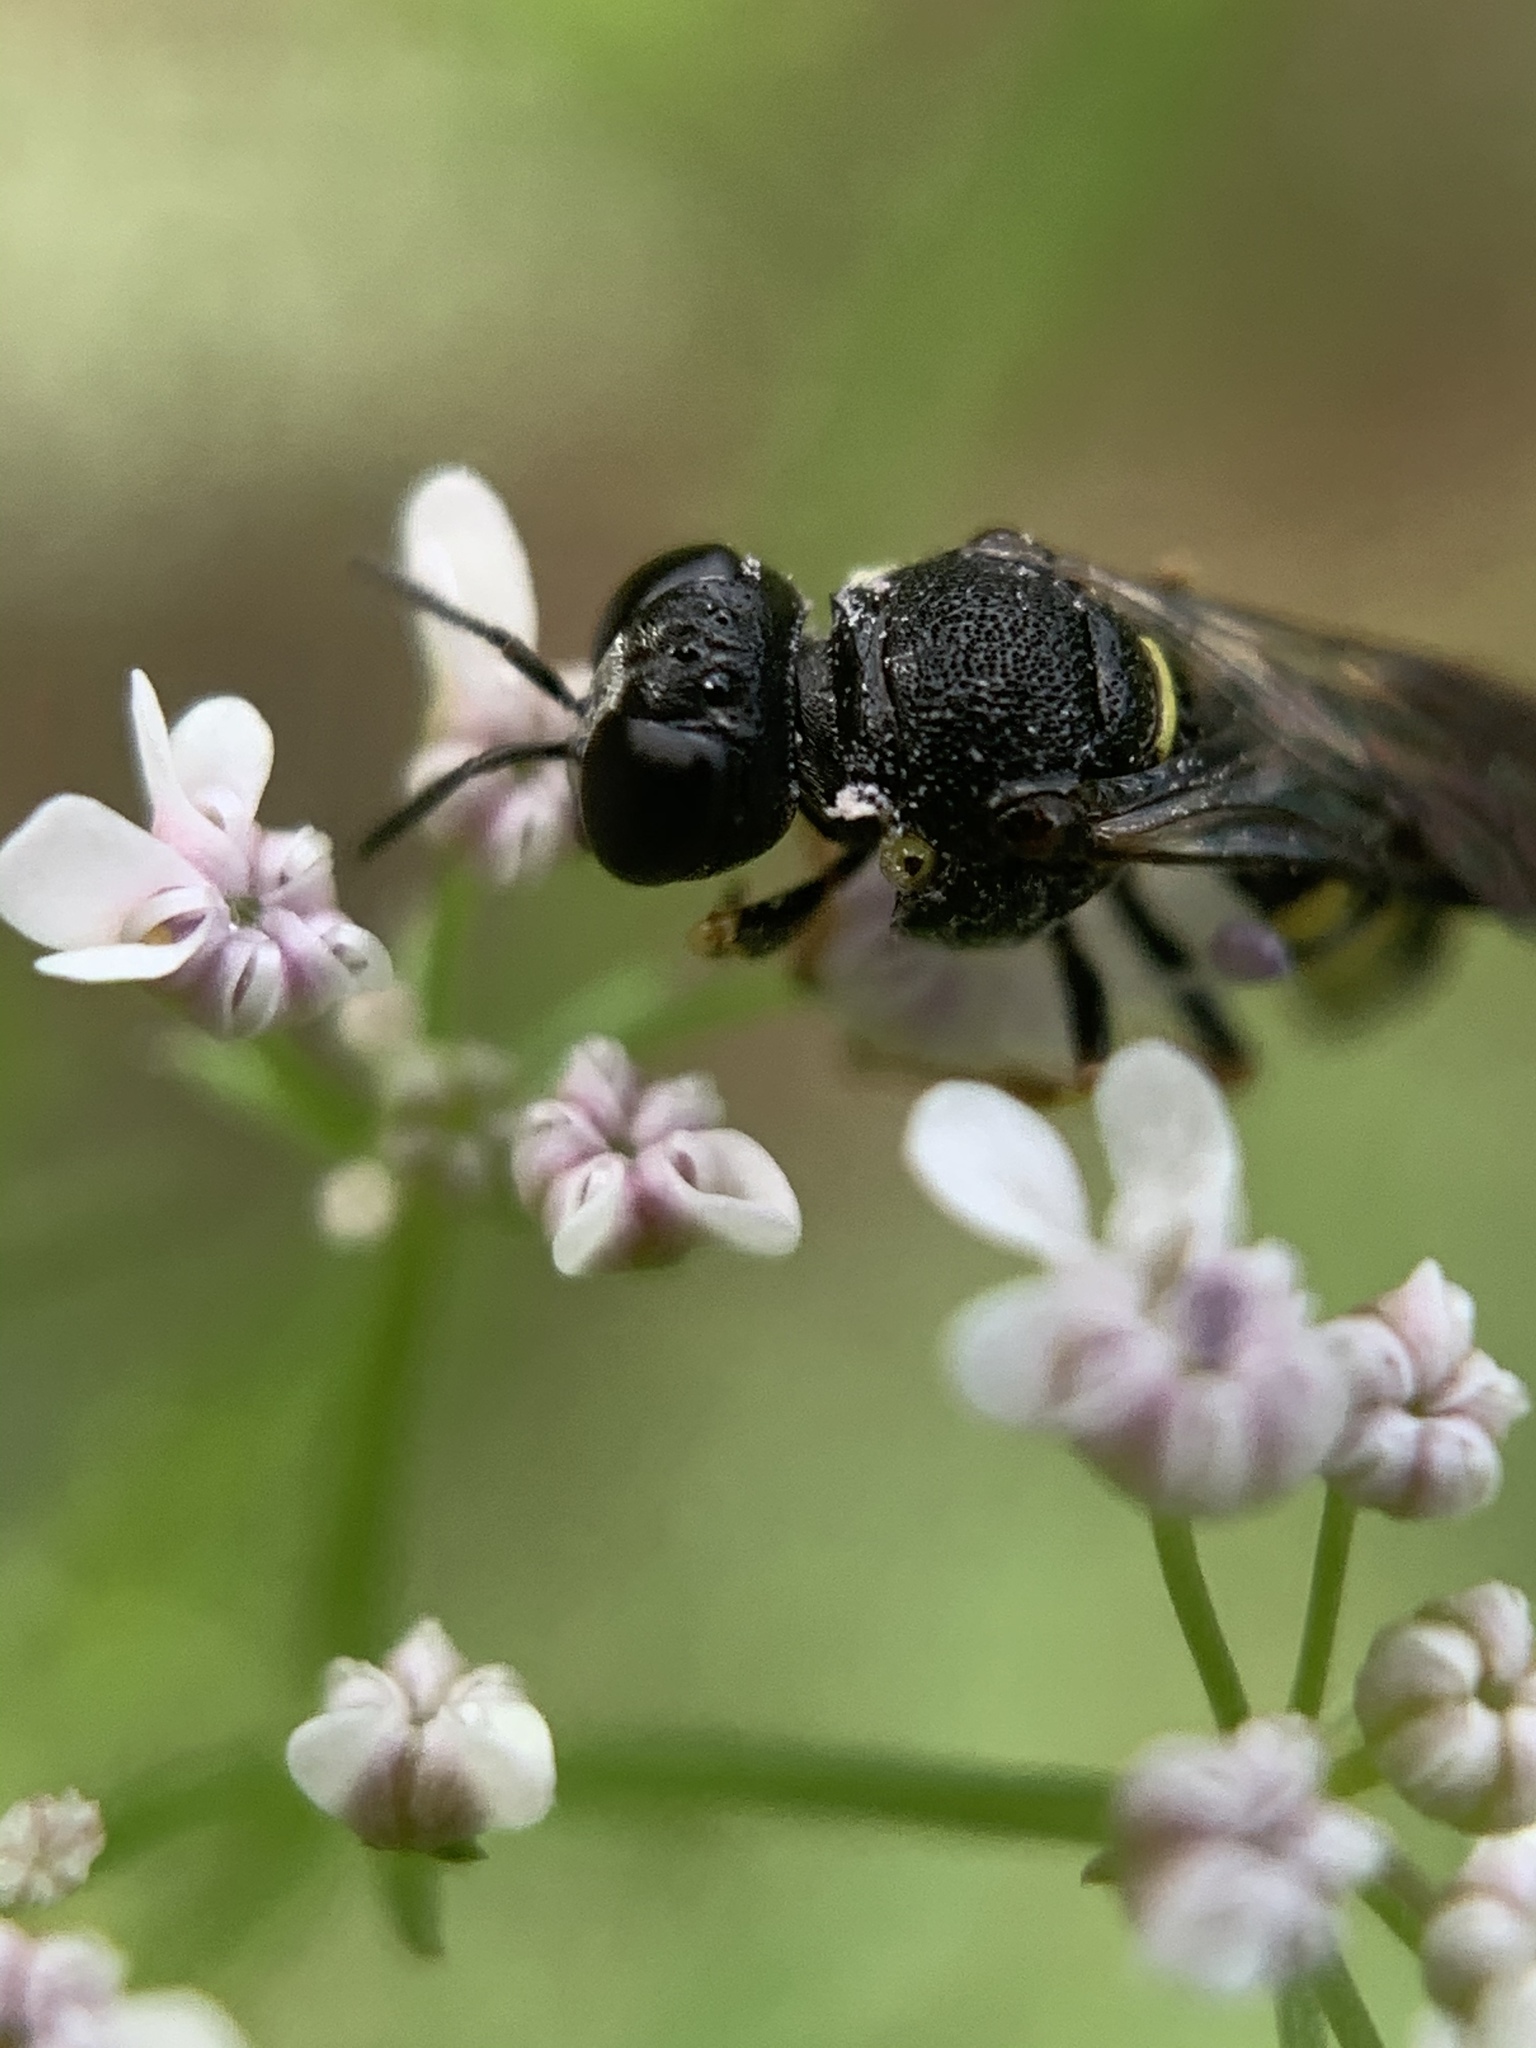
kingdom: Animalia
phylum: Arthropoda
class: Insecta
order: Hymenoptera
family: Crabronidae
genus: Anacrabro
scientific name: Anacrabro ocellatus
